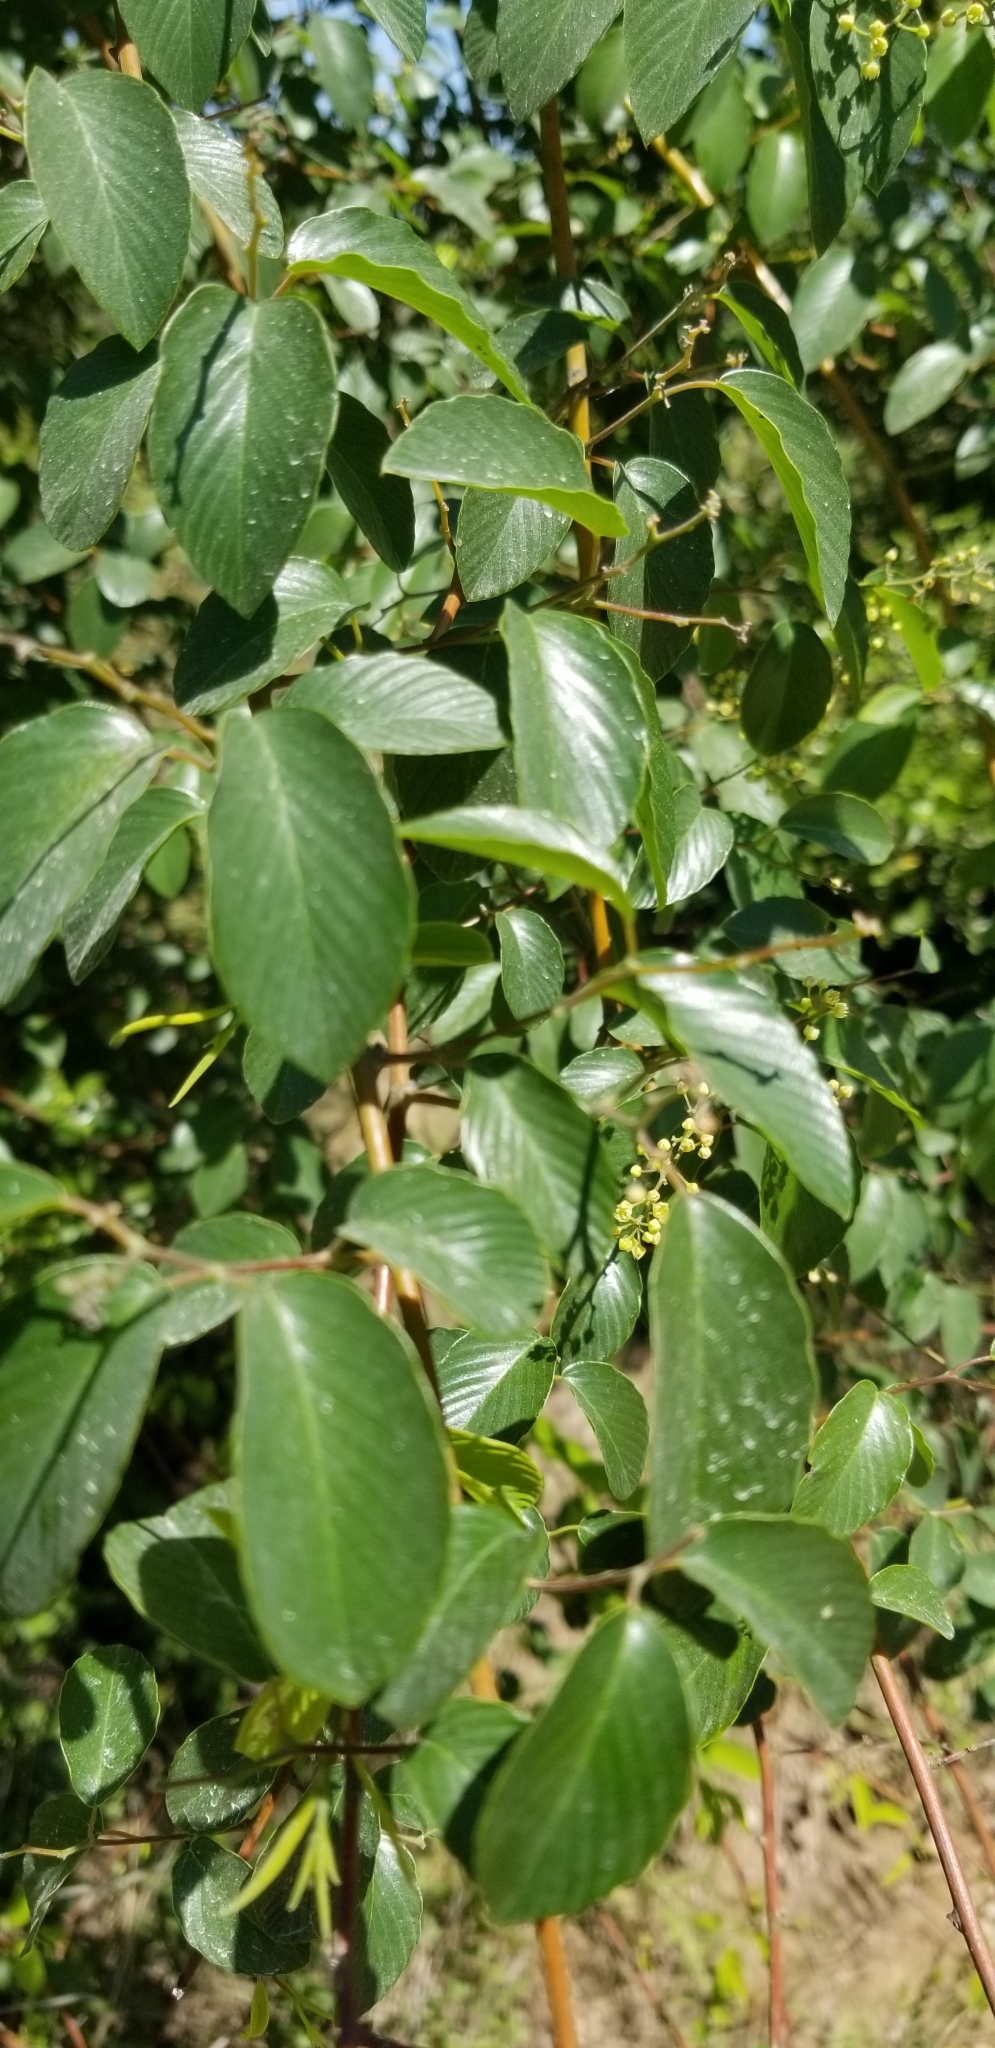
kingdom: Plantae
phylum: Tracheophyta
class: Magnoliopsida
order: Rosales
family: Rhamnaceae
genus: Berchemia
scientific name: Berchemia scandens
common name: Supplejack
